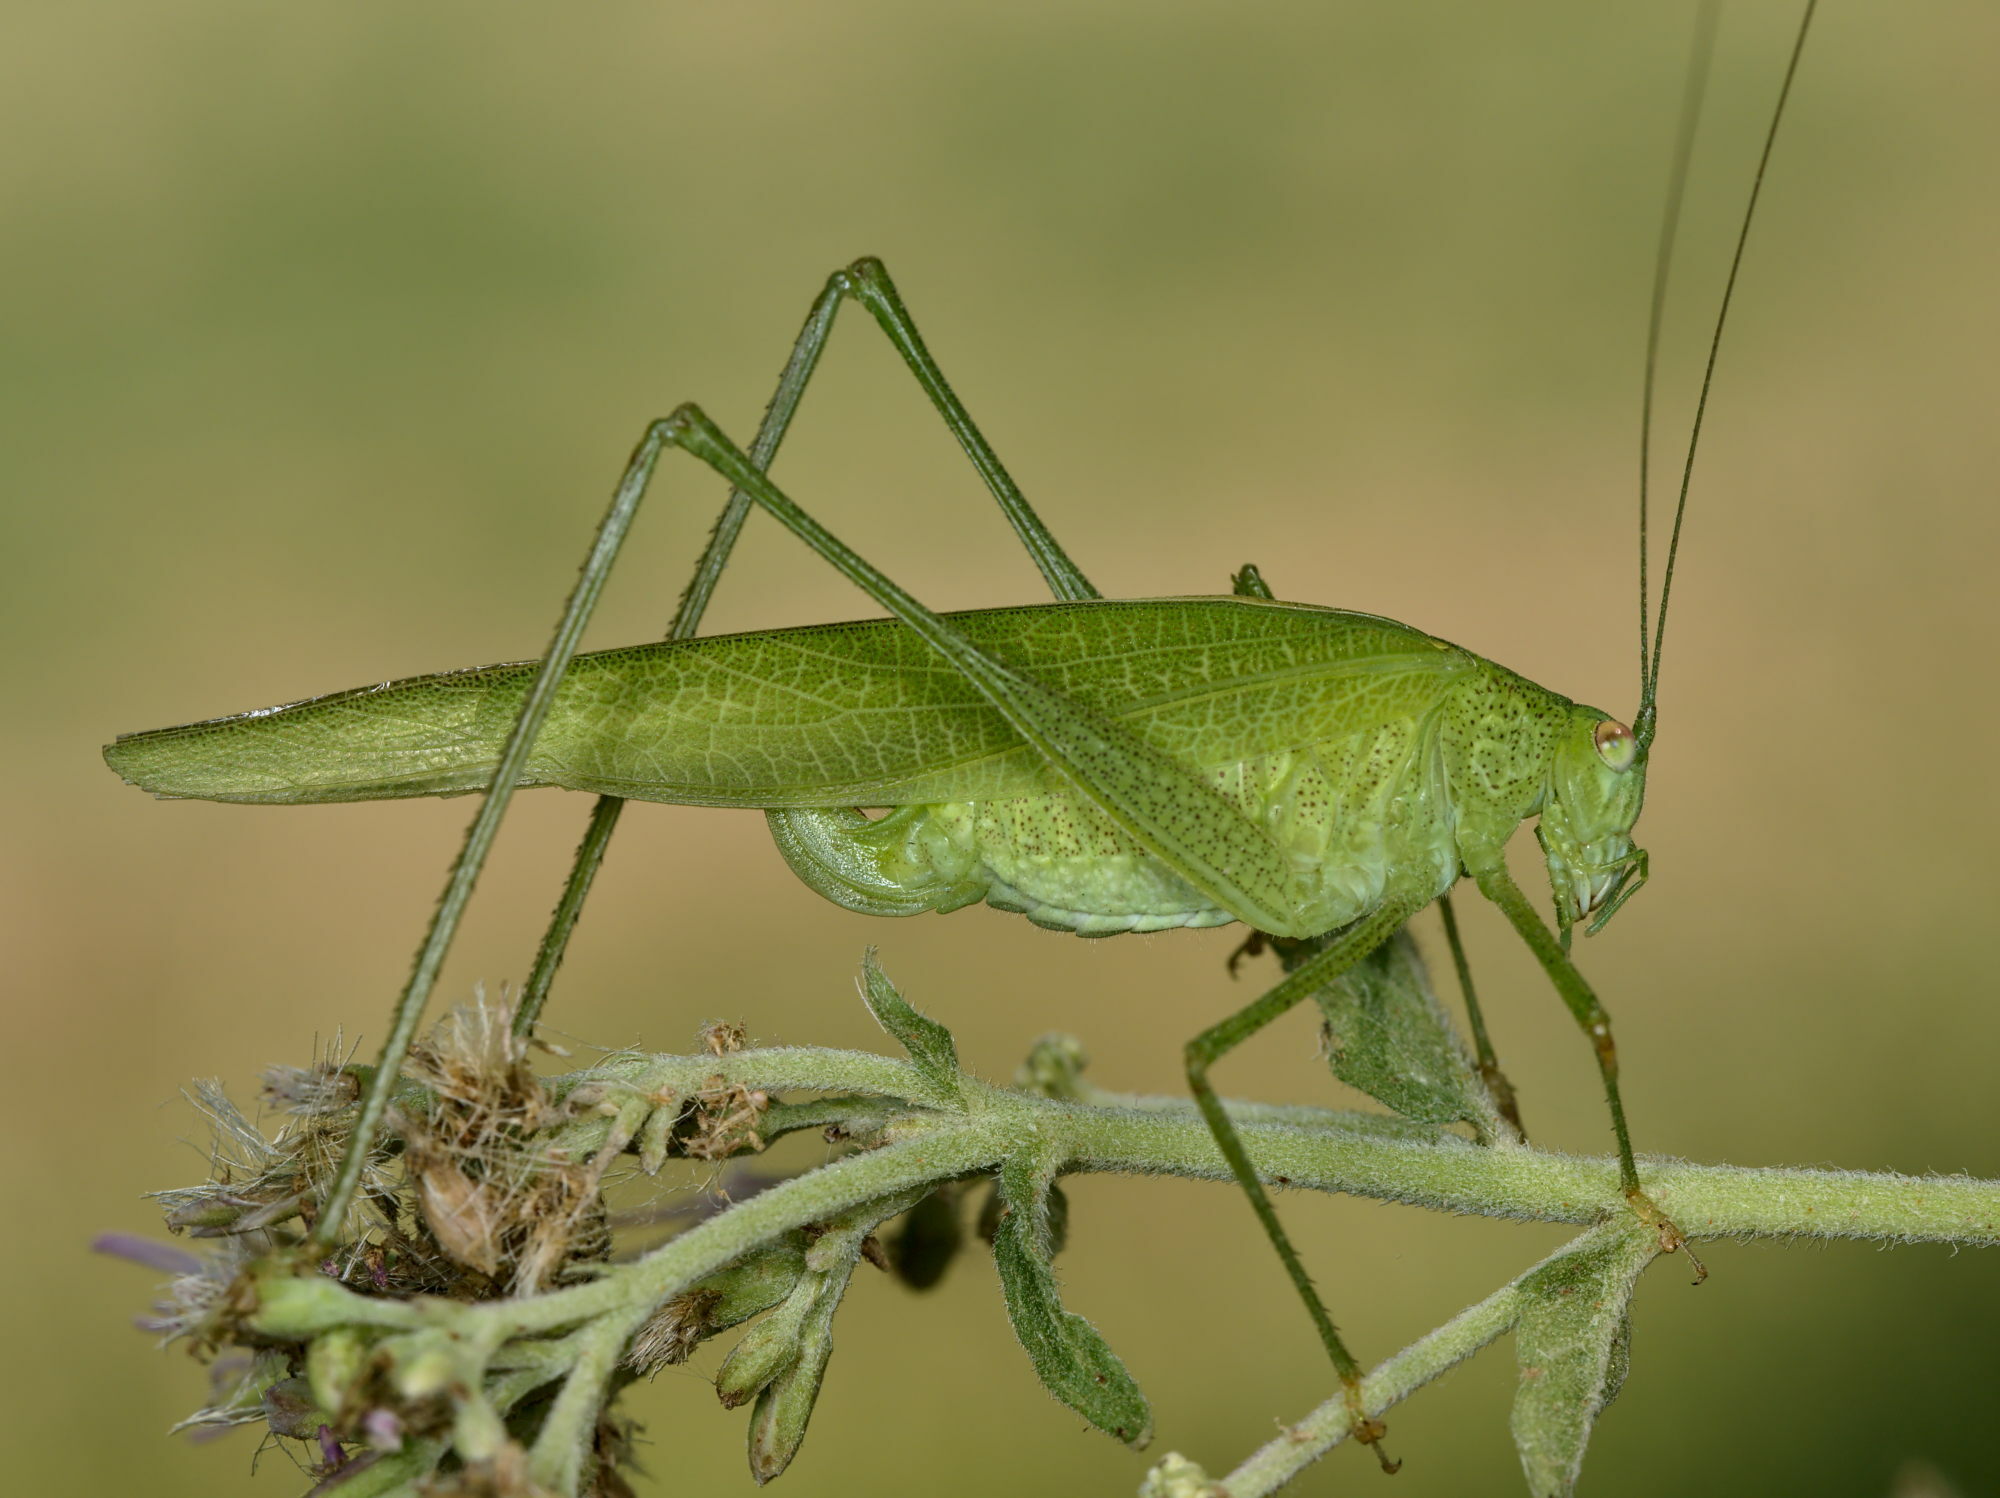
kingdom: Animalia
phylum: Arthropoda
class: Insecta
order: Orthoptera
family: Tettigoniidae
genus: Phaneroptera
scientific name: Phaneroptera nana
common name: Southern sickle bush-cricket
